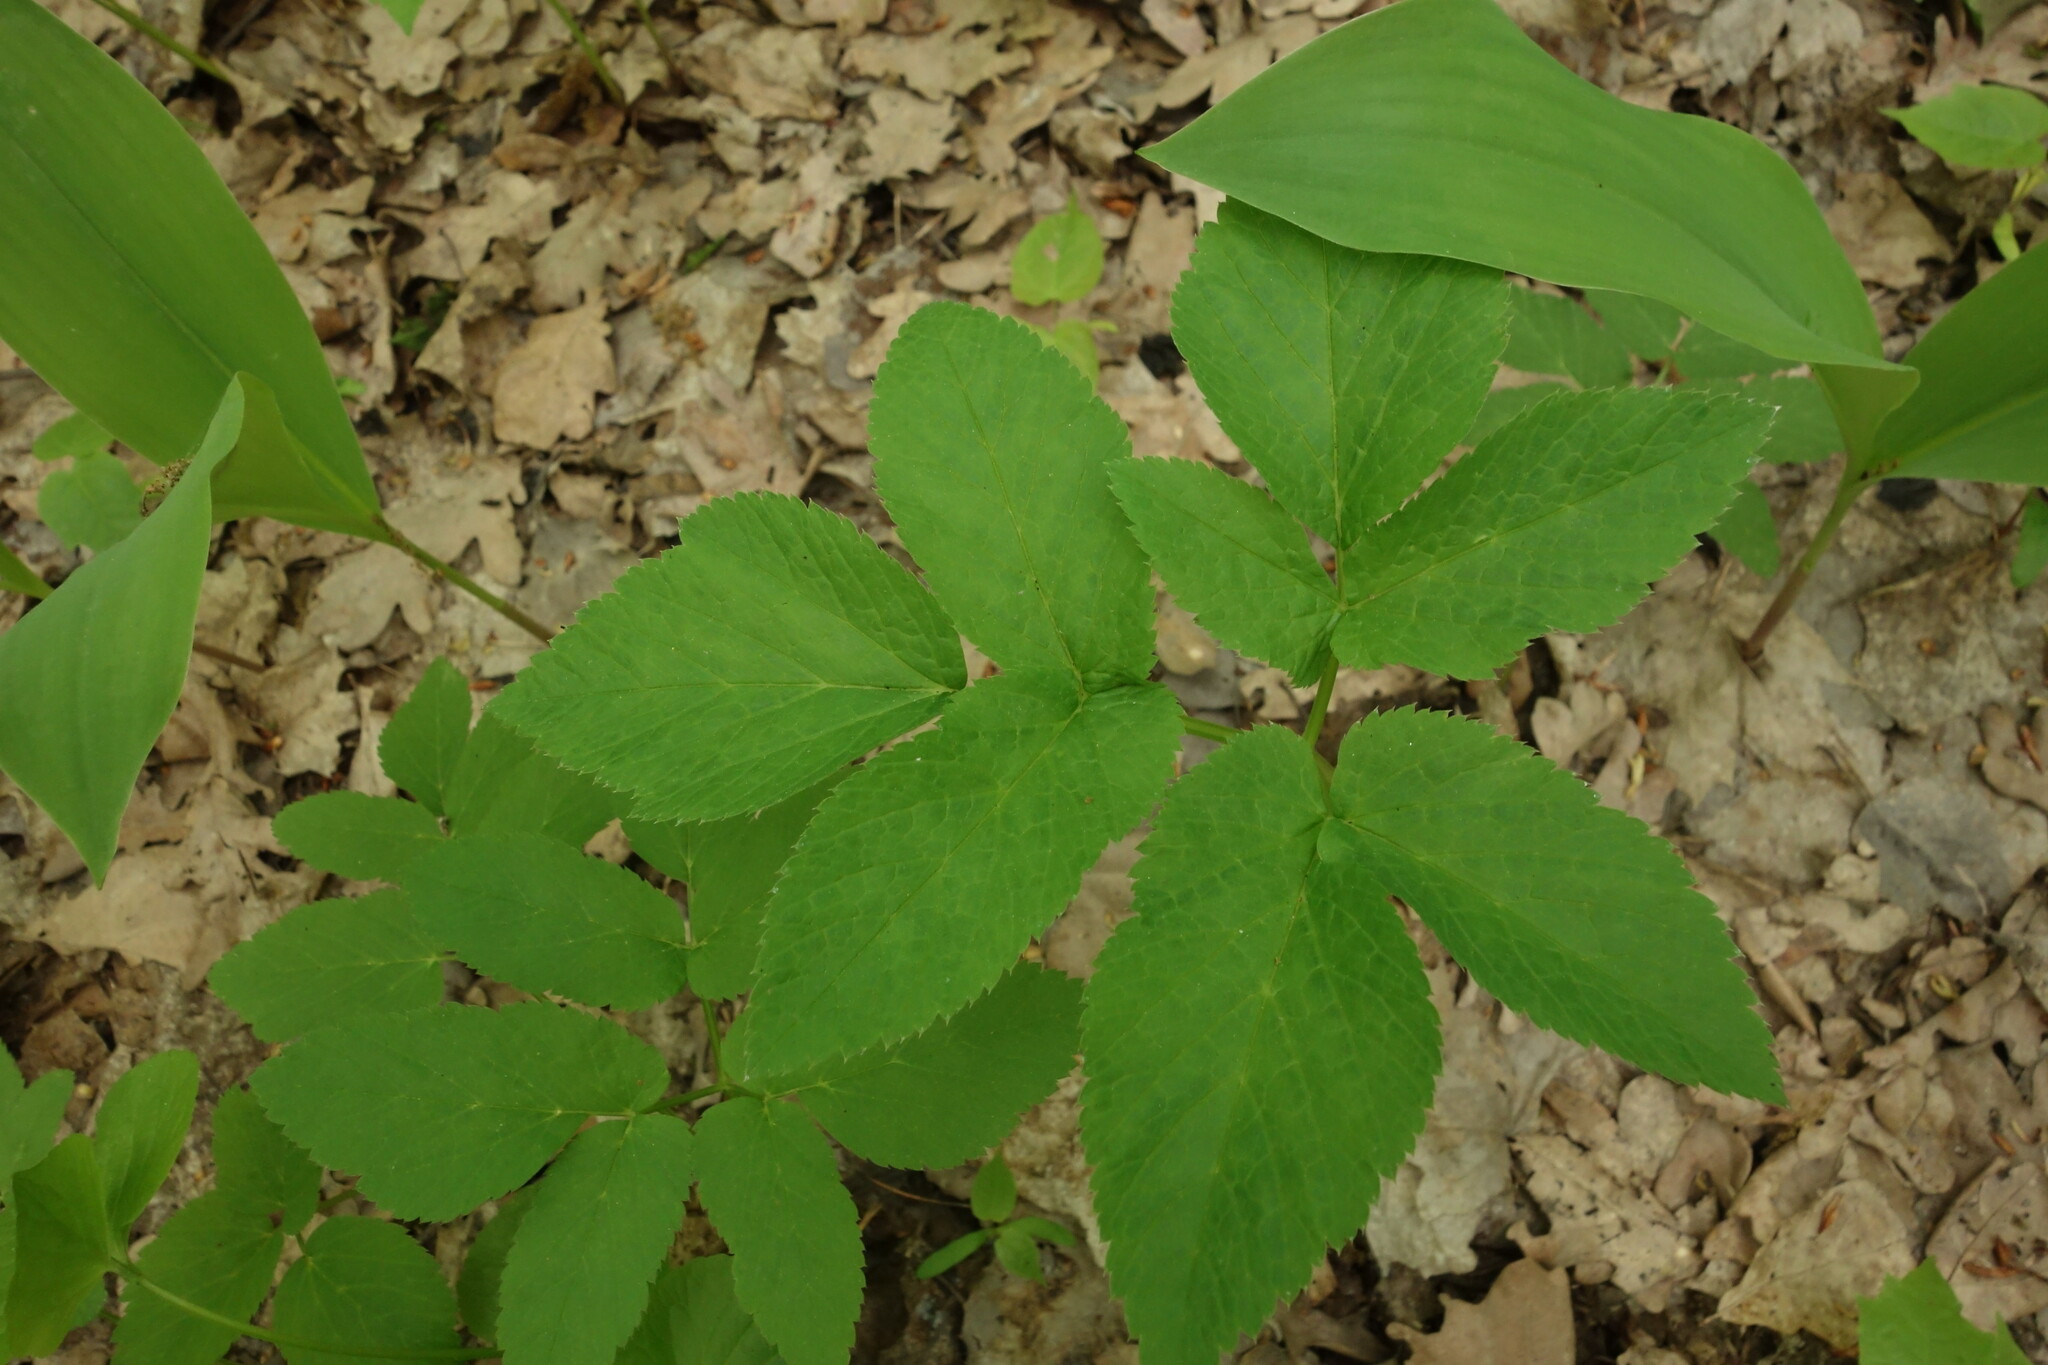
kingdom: Plantae
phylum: Tracheophyta
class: Magnoliopsida
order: Apiales
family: Apiaceae
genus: Aegopodium
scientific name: Aegopodium podagraria
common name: Ground-elder
